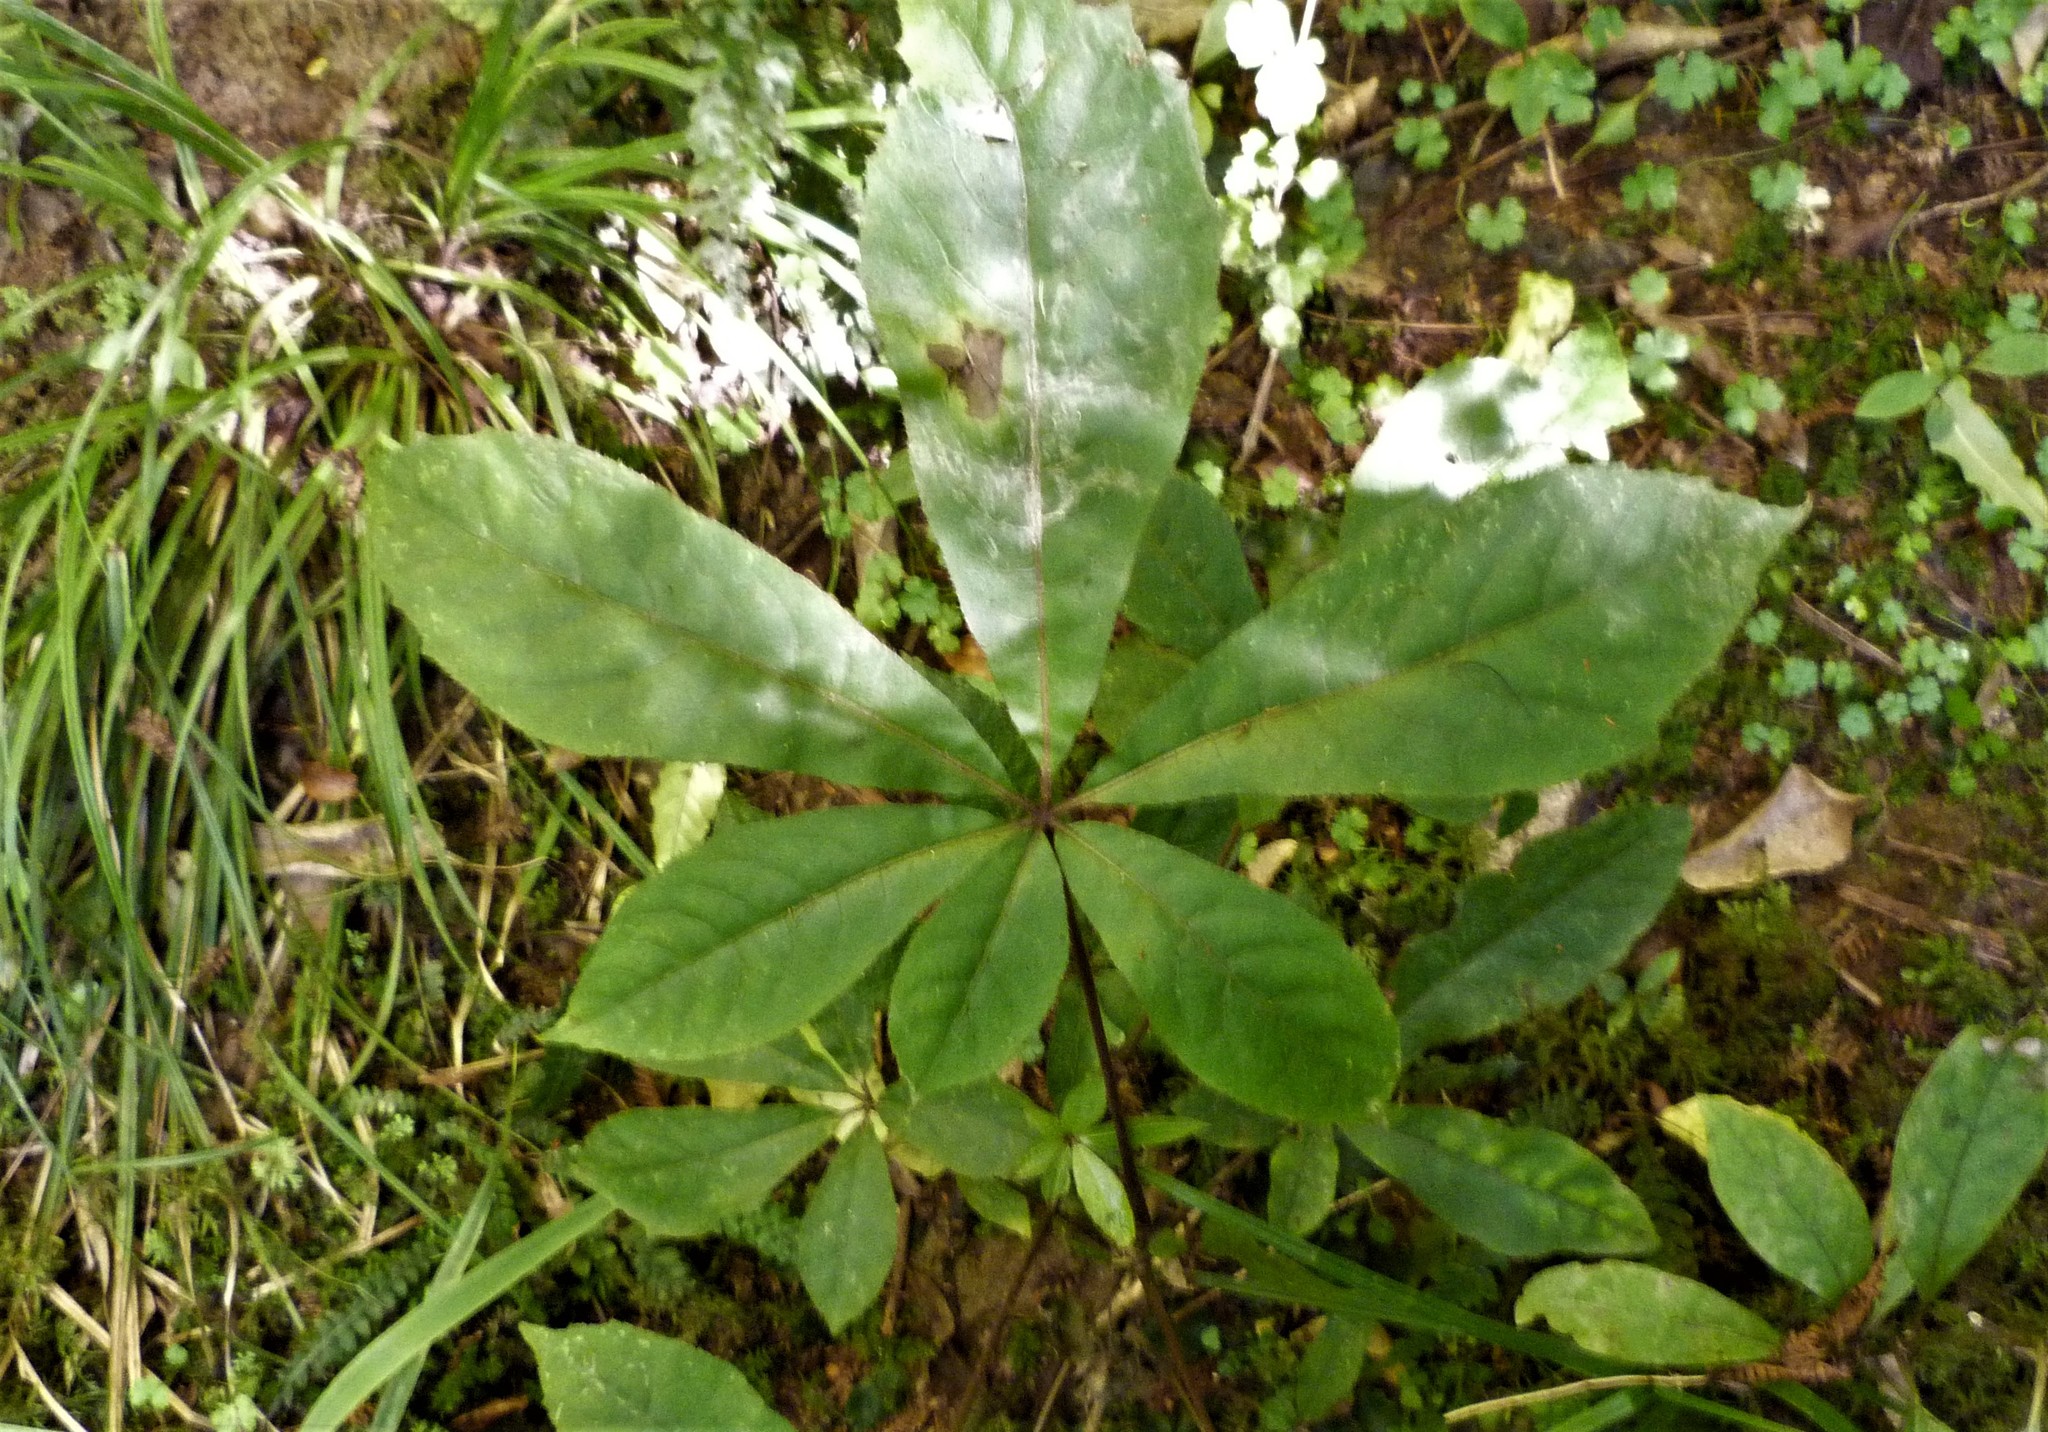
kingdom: Plantae
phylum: Tracheophyta
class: Magnoliopsida
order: Apiales
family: Araliaceae
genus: Schefflera
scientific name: Schefflera digitata
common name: Pate
